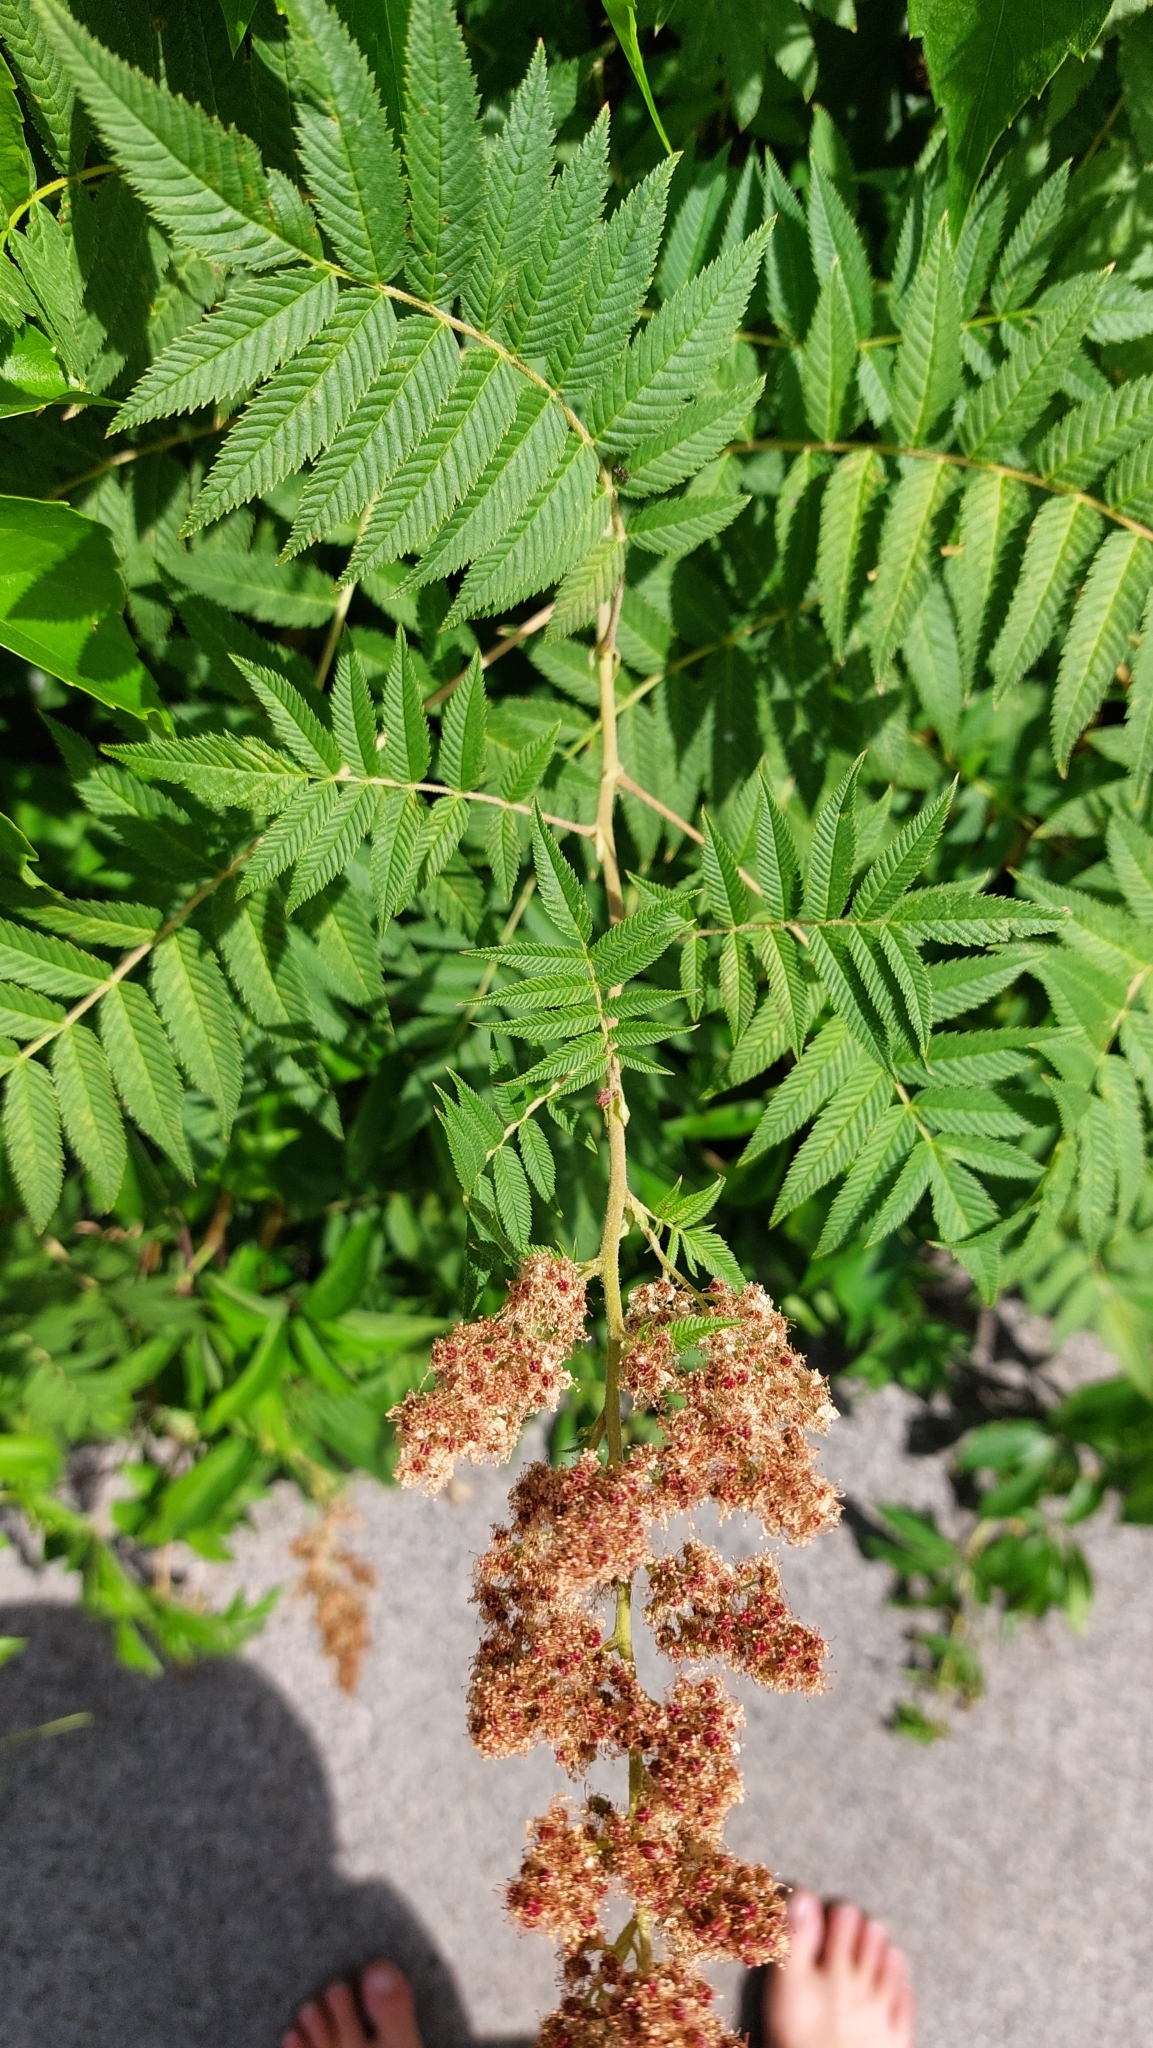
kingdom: Plantae
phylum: Tracheophyta
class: Magnoliopsida
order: Rosales
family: Rosaceae
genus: Sorbaria
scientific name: Sorbaria sorbifolia
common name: False spiraea
